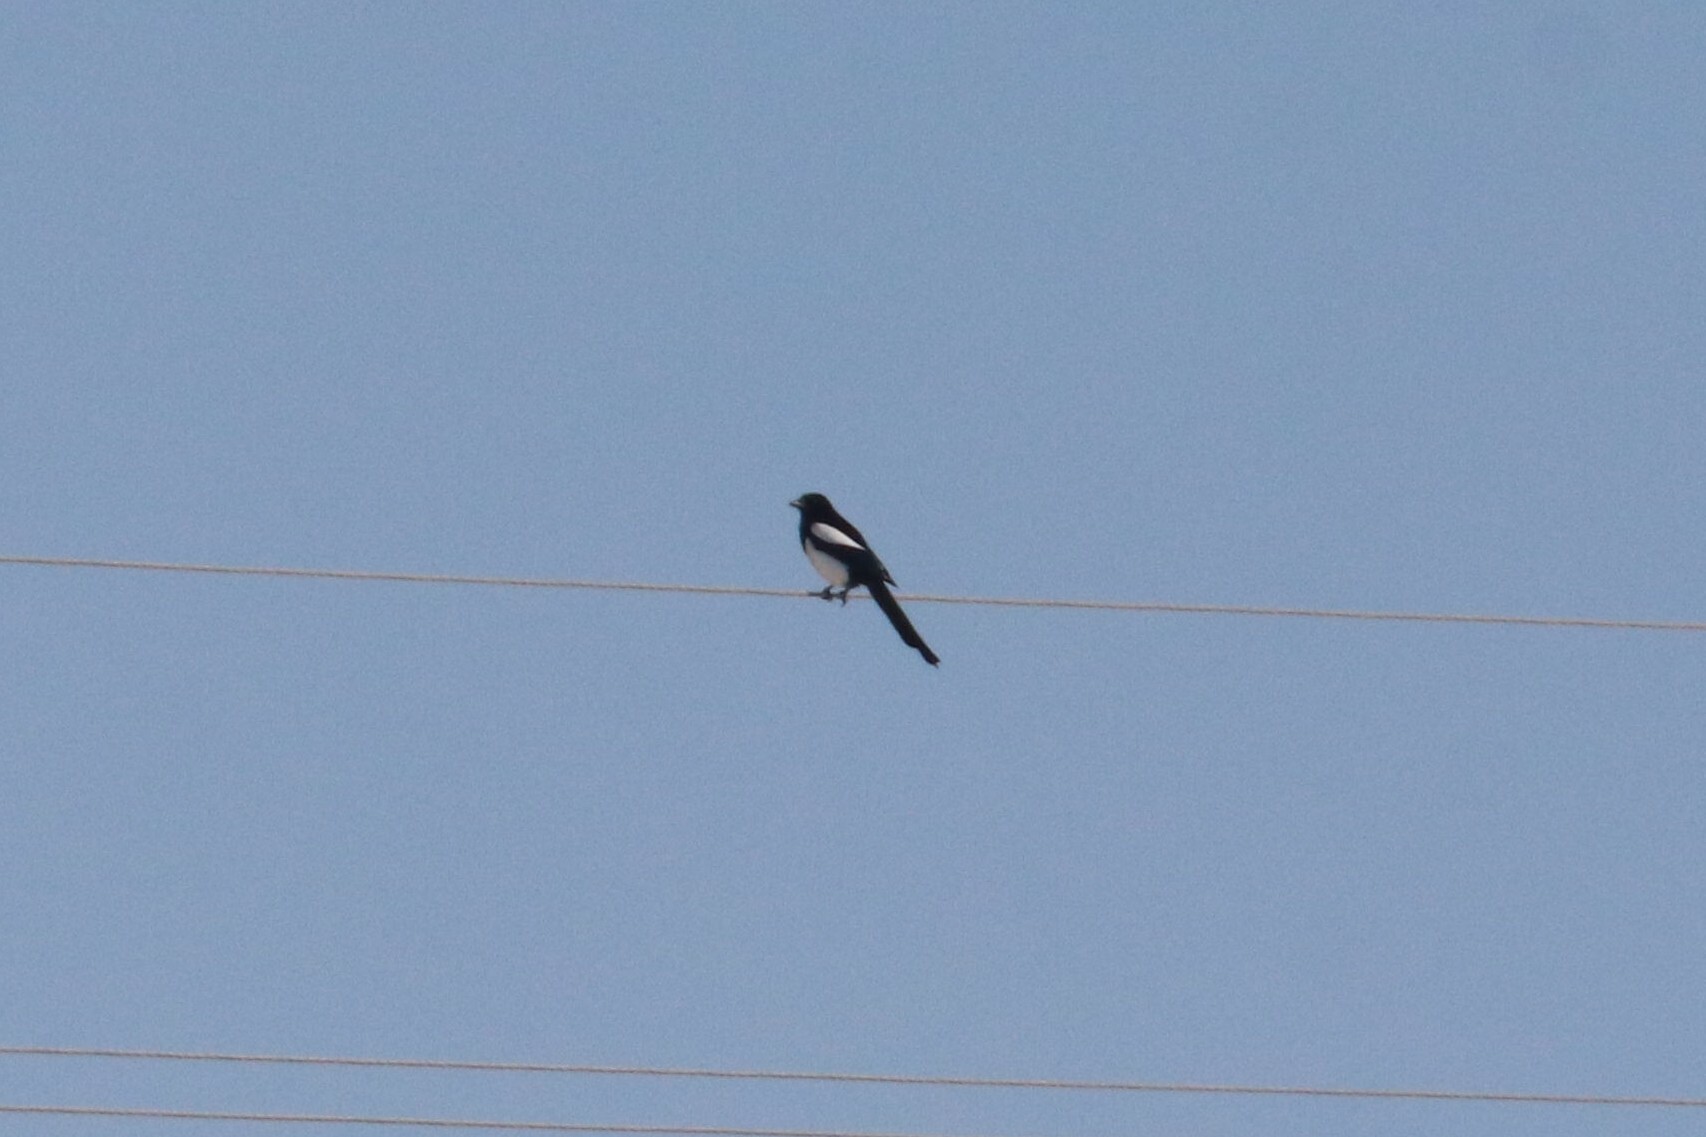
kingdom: Animalia
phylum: Chordata
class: Aves
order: Passeriformes
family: Corvidae
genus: Pica
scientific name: Pica pica
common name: Eurasian magpie
